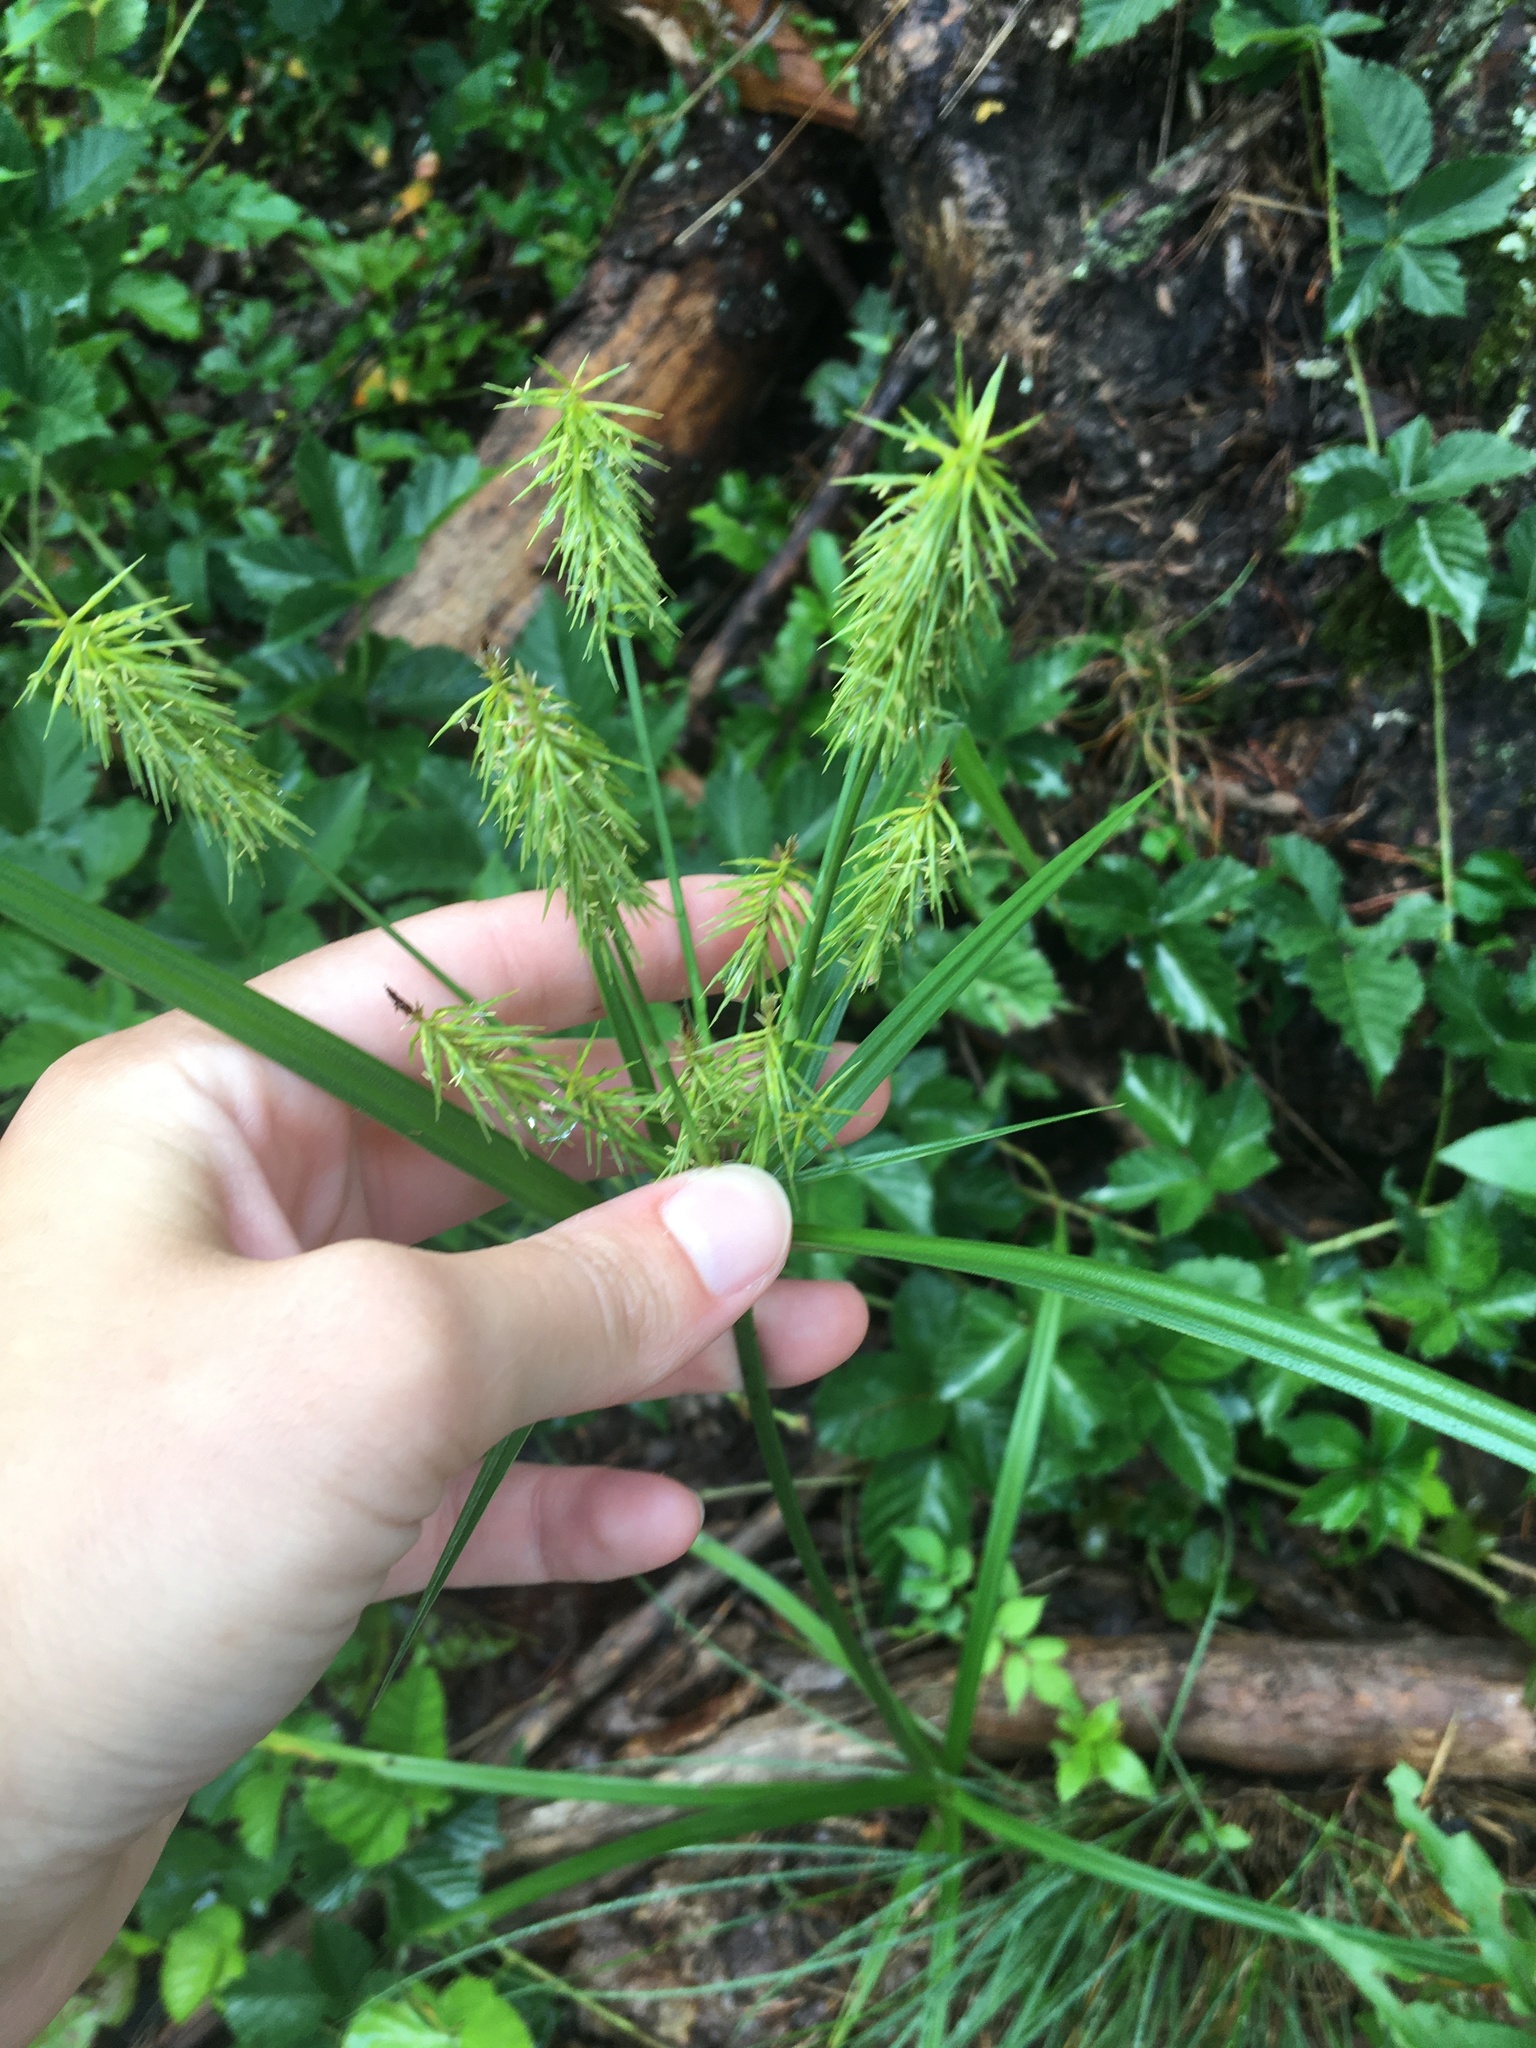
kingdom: Plantae
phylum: Tracheophyta
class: Liliopsida
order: Poales
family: Cyperaceae
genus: Cyperus
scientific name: Cyperus retrofractus
